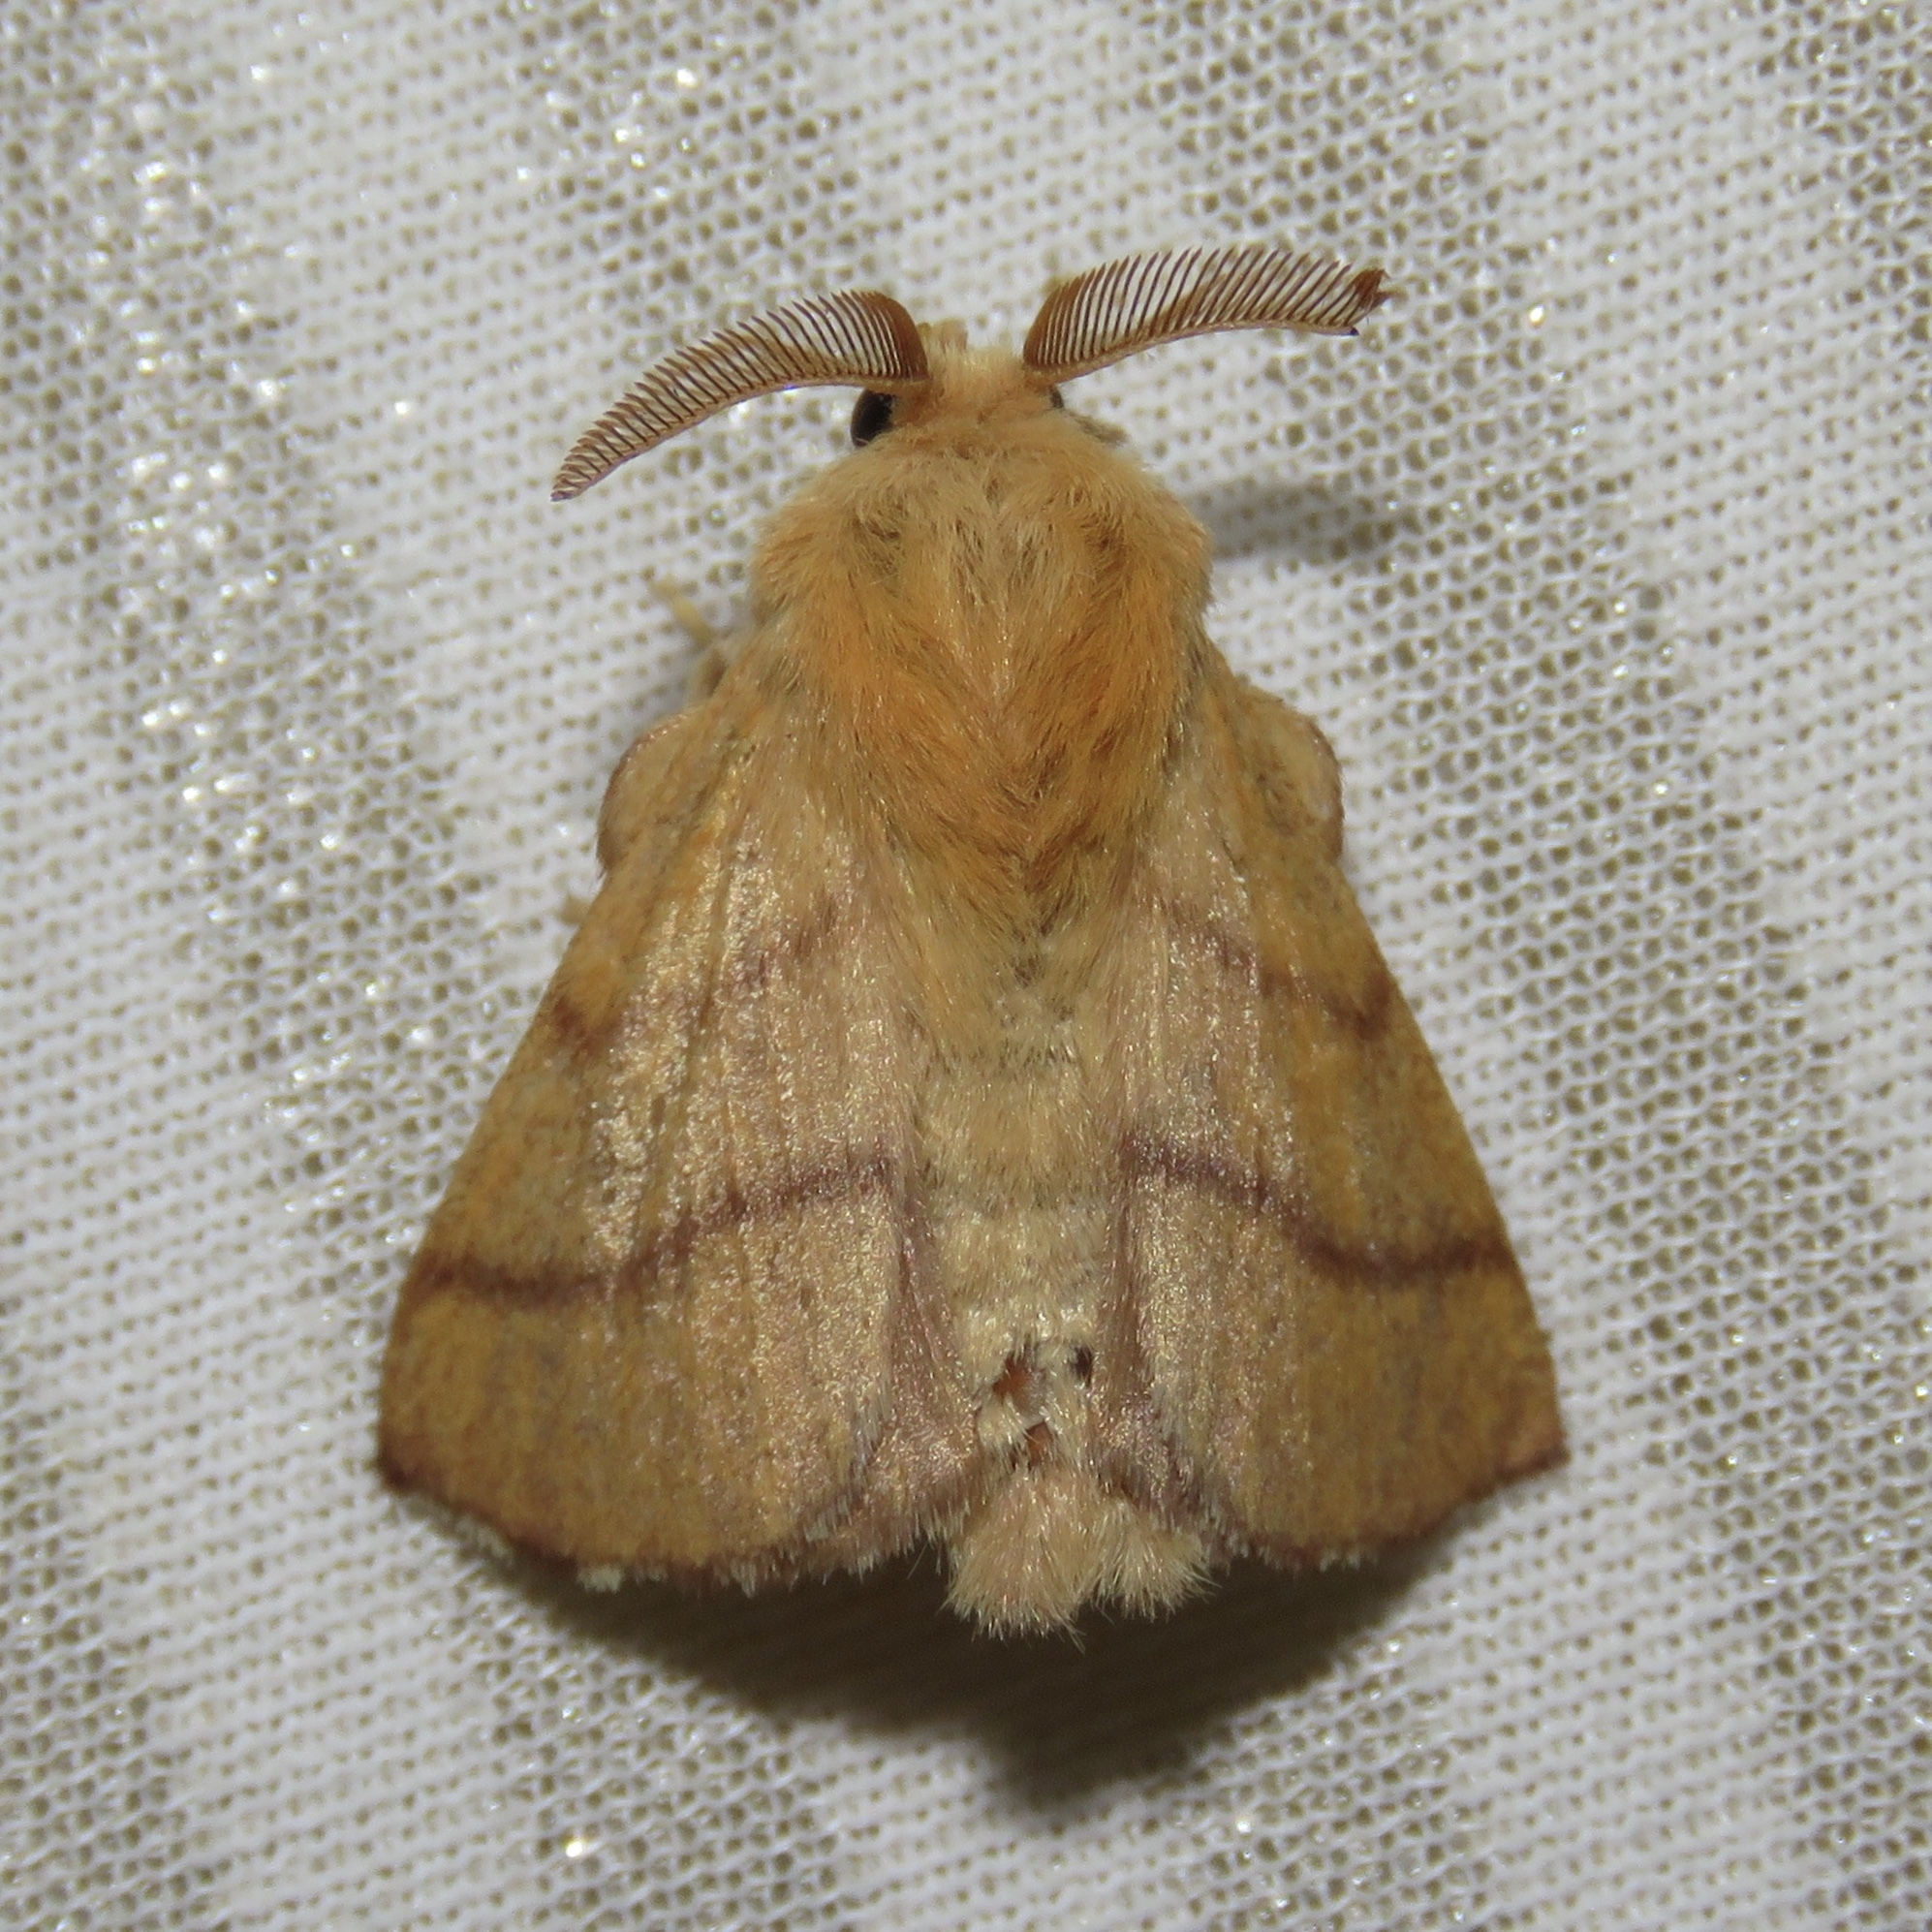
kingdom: Animalia
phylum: Arthropoda
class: Insecta
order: Lepidoptera
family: Lasiocampidae
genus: Malacosoma
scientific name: Malacosoma disstria
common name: Forest tent caterpillar
